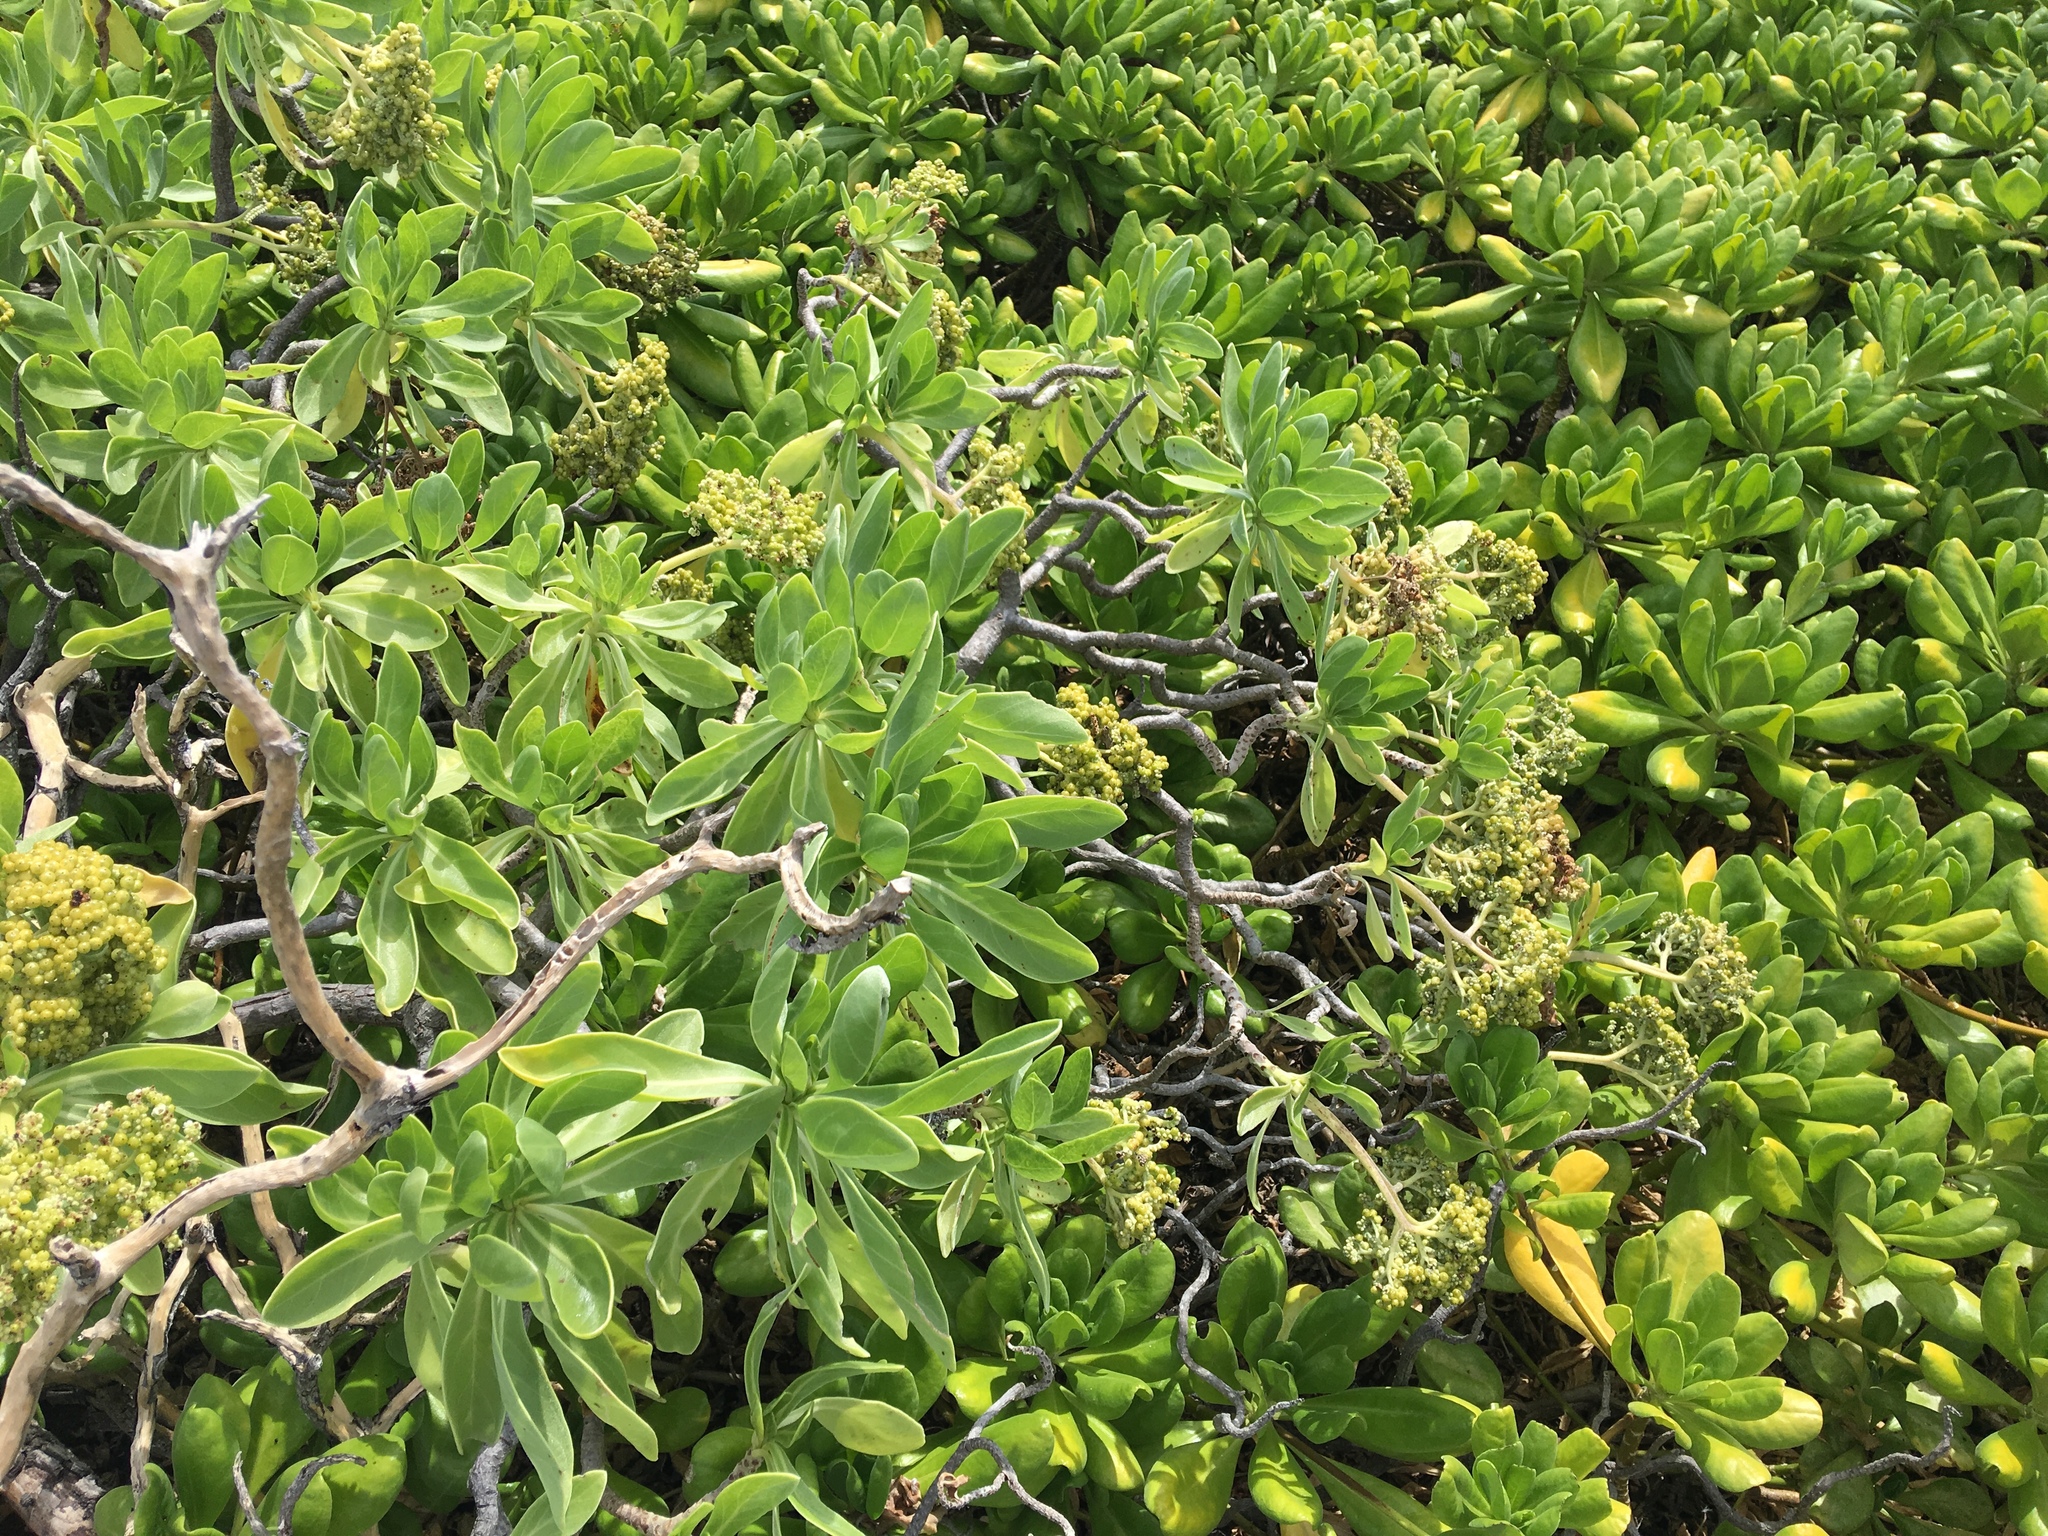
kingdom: Plantae
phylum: Tracheophyta
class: Magnoliopsida
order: Boraginales
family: Heliotropiaceae
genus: Heliotropium
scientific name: Heliotropium velutinum
